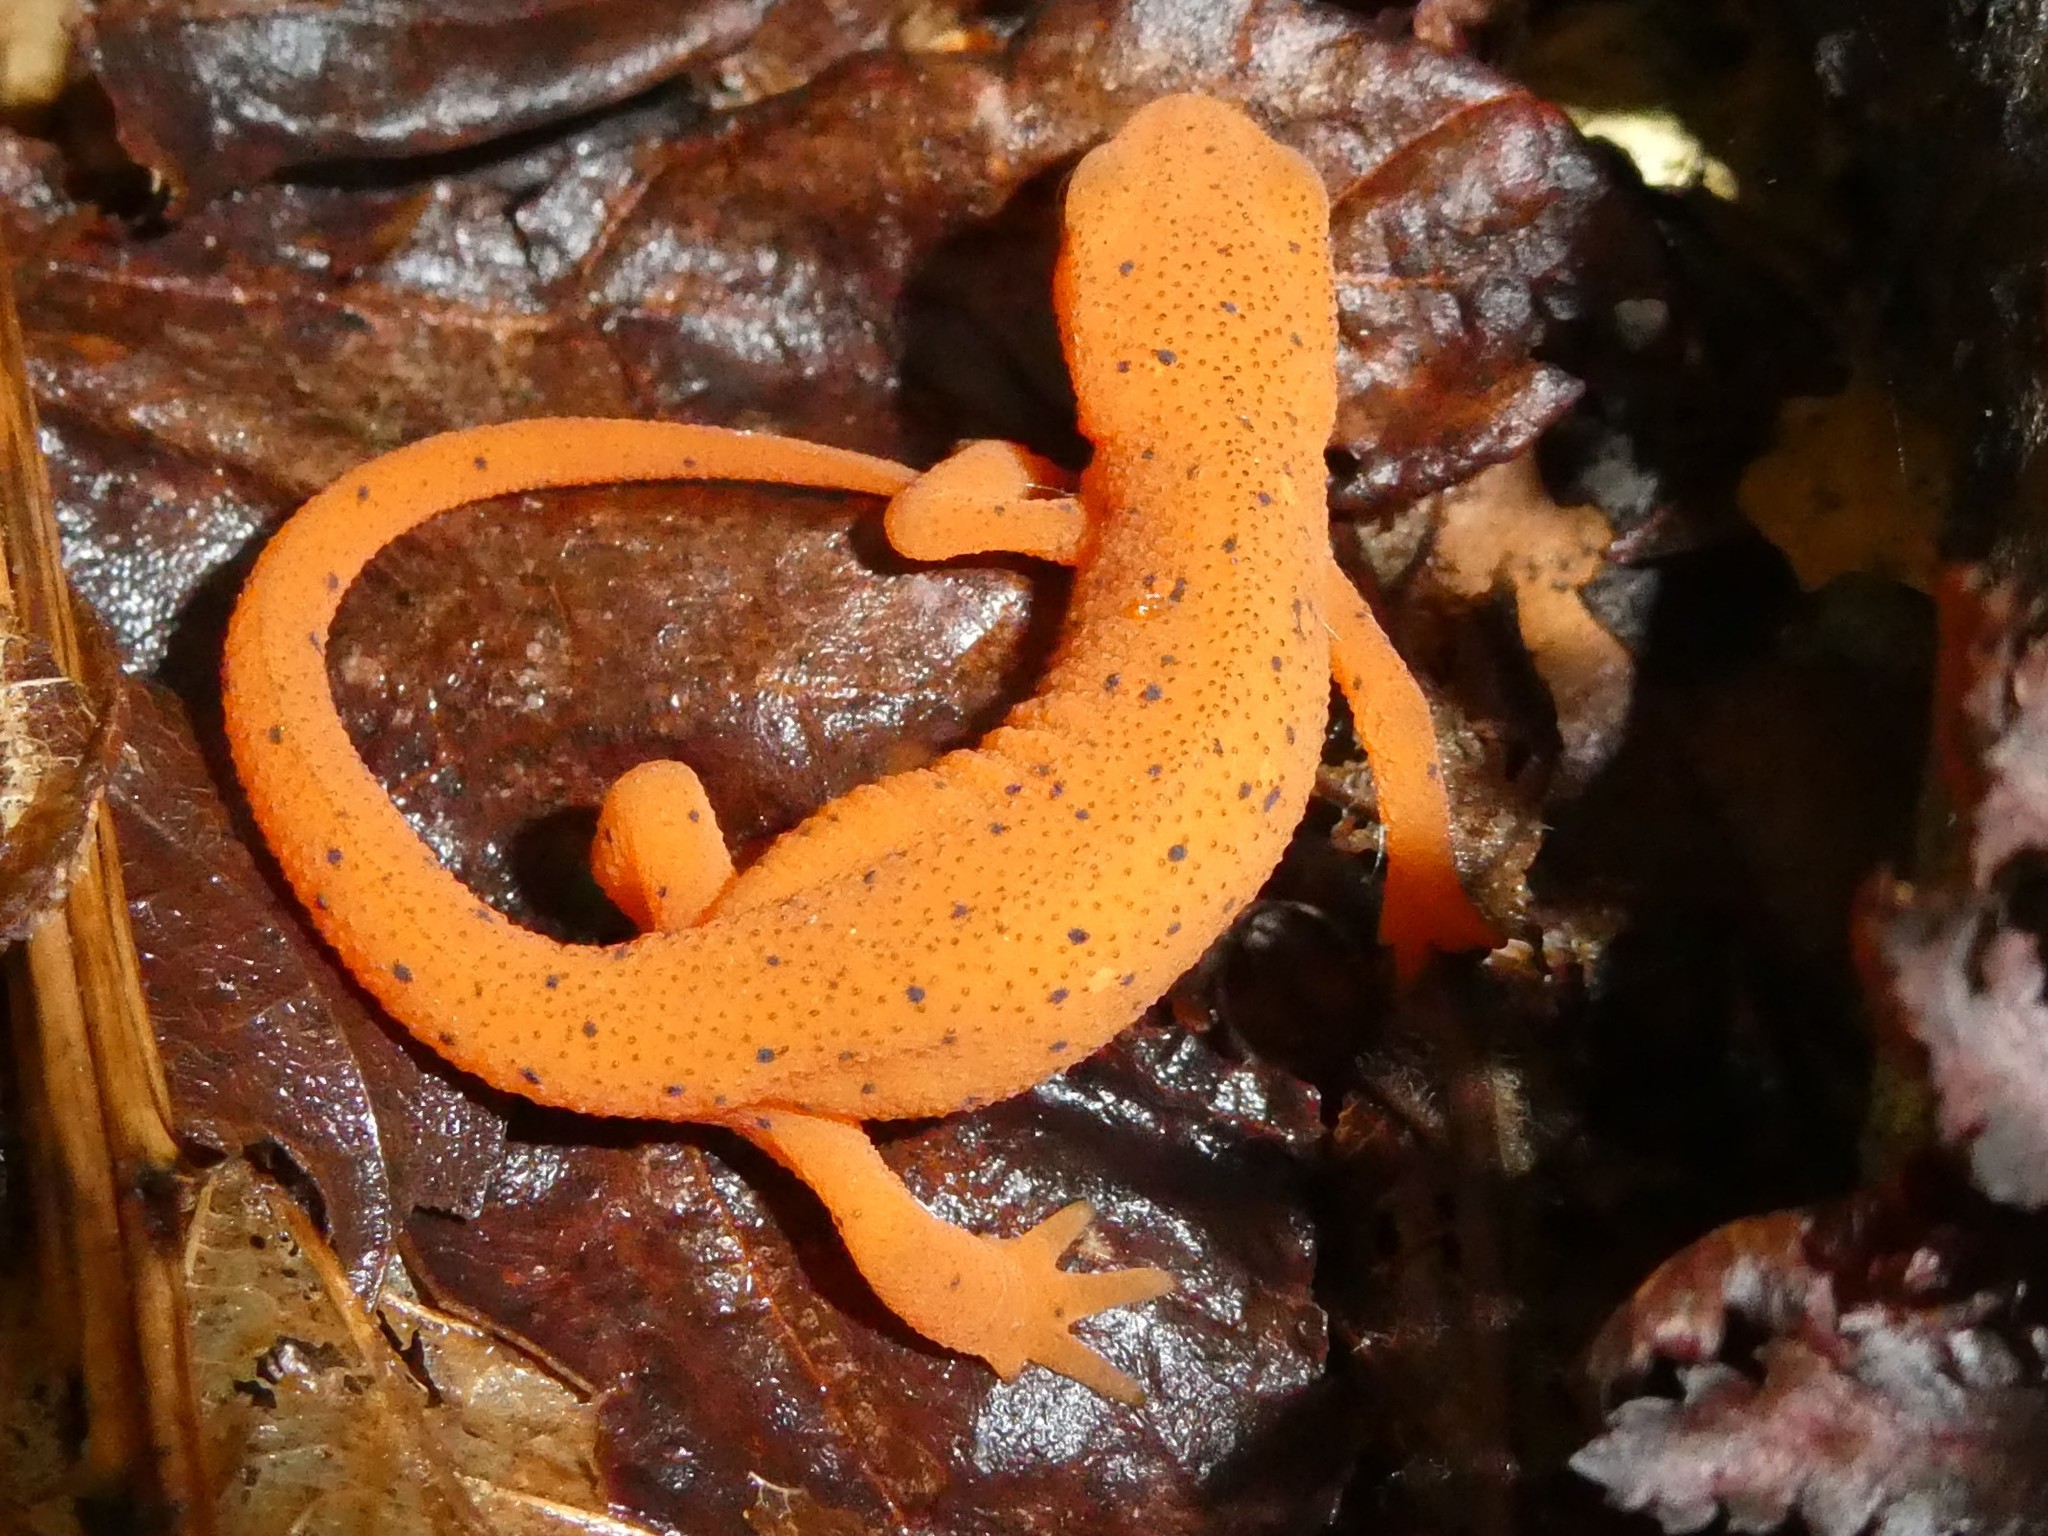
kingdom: Animalia
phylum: Chordata
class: Amphibia
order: Caudata
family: Salamandridae
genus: Notophthalmus
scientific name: Notophthalmus viridescens
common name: Eastern newt
